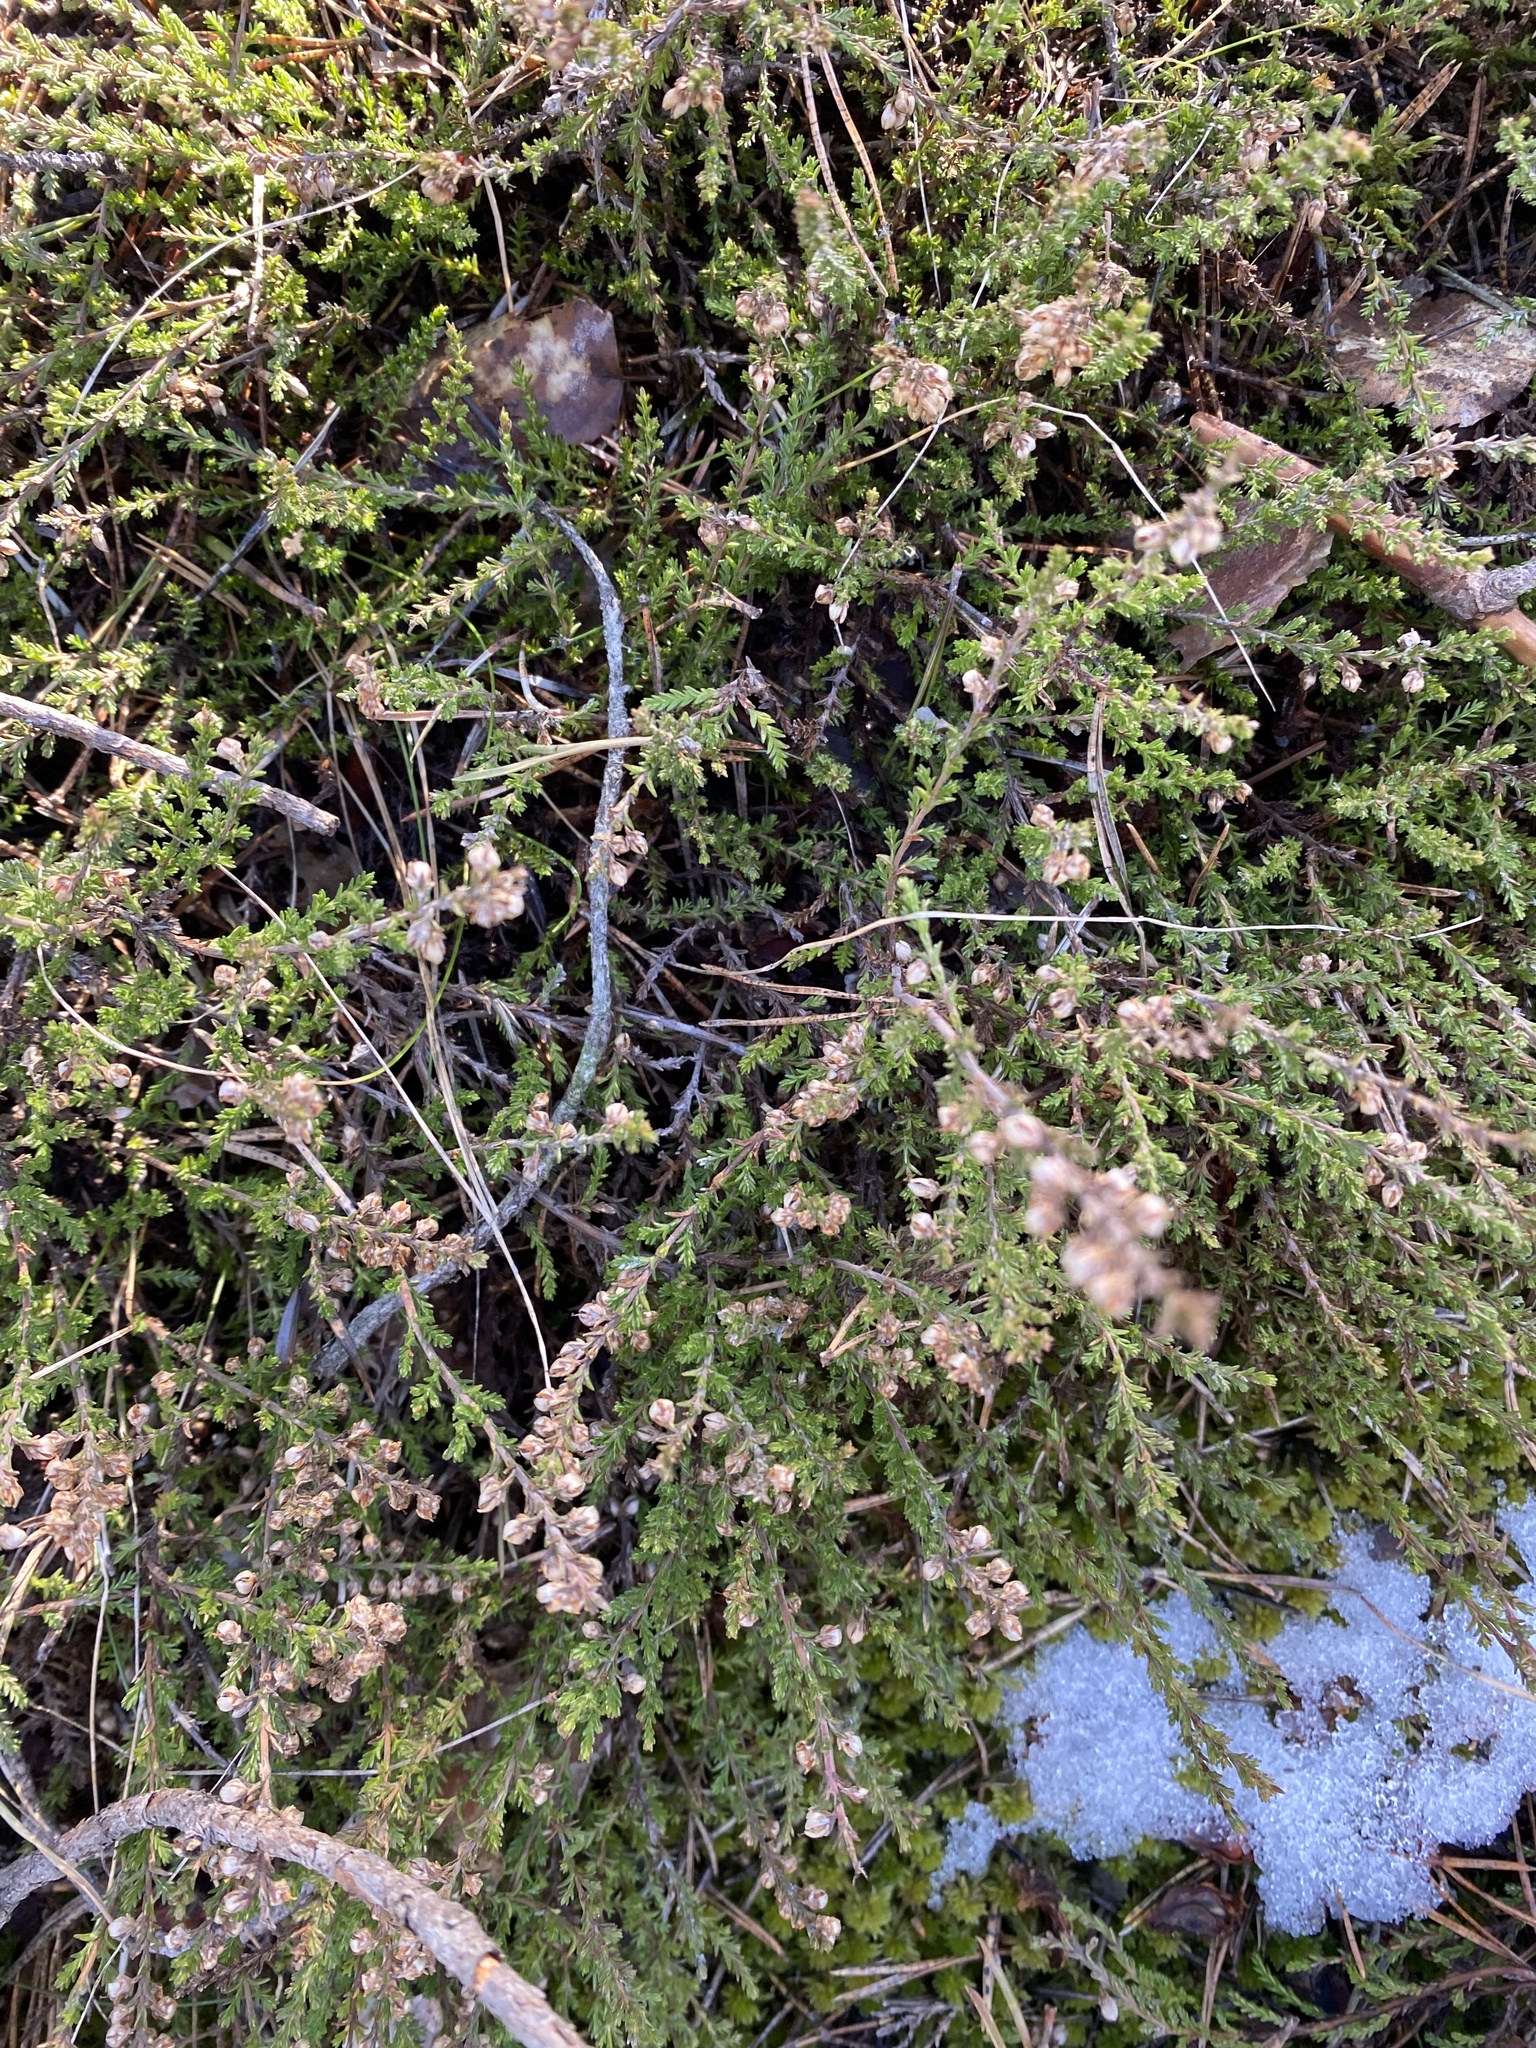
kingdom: Plantae
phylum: Tracheophyta
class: Magnoliopsida
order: Ericales
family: Ericaceae
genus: Calluna
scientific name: Calluna vulgaris
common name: Heather
